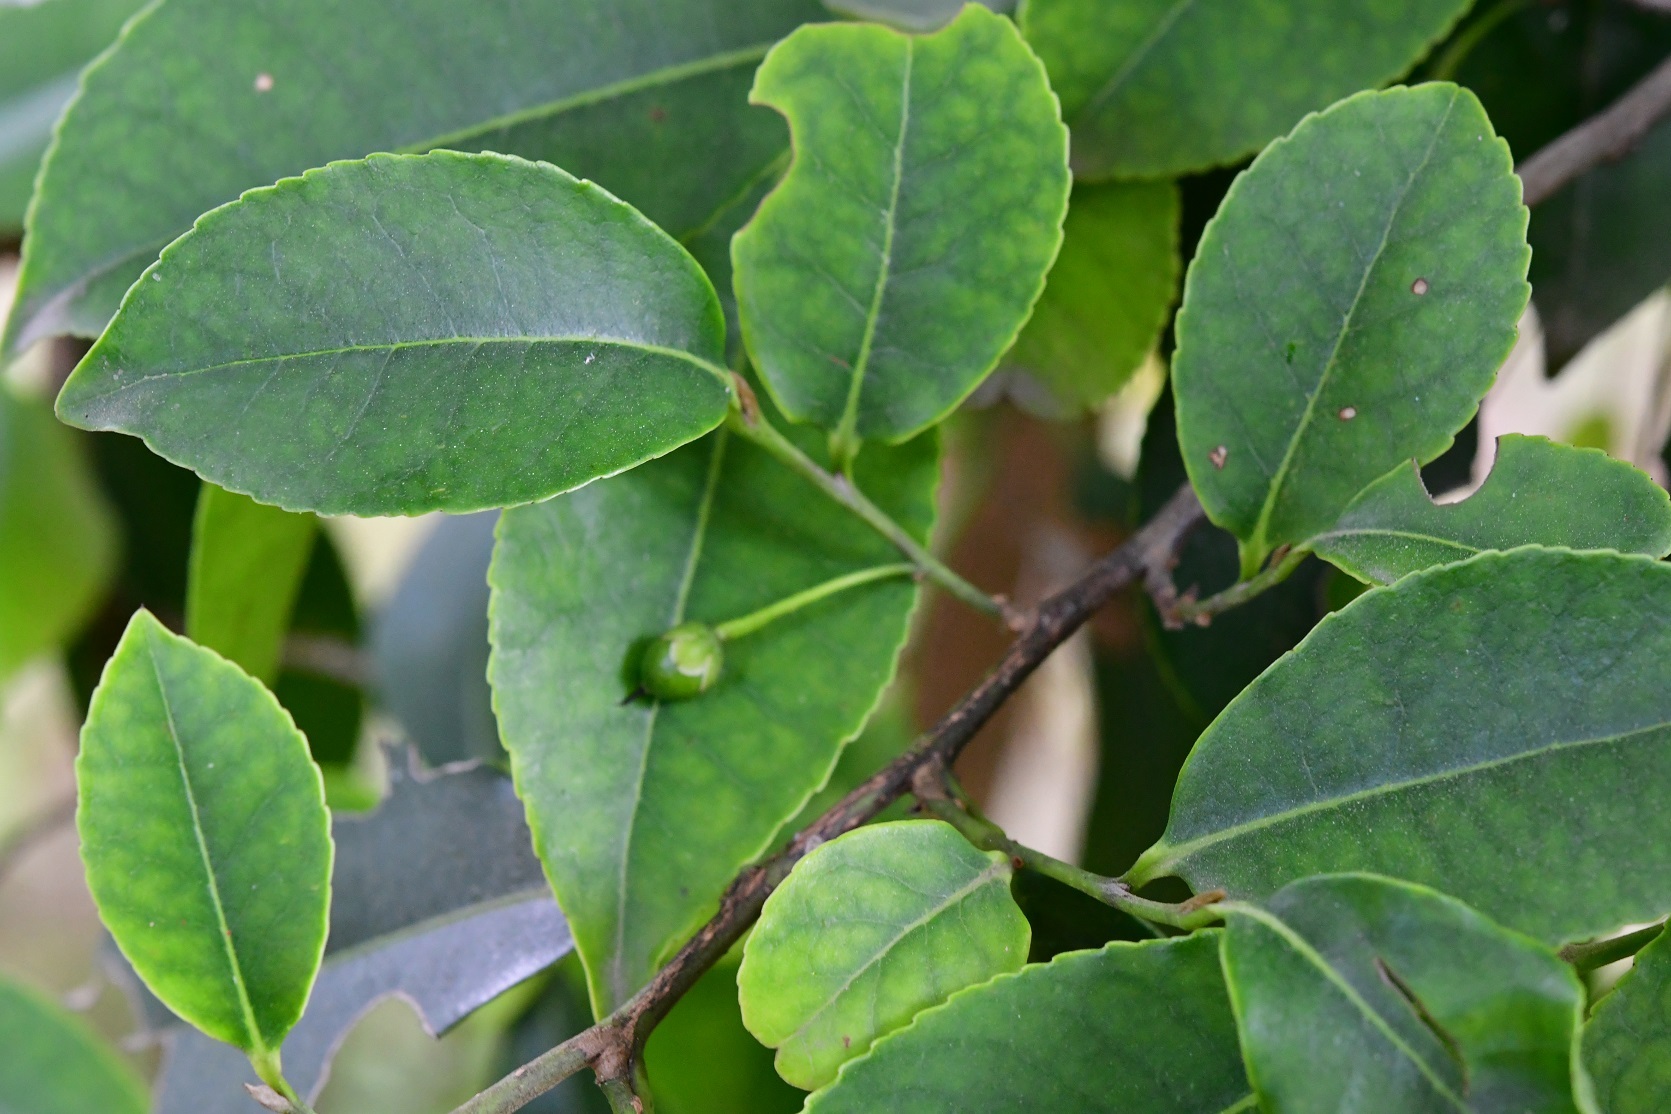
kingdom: Plantae
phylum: Tracheophyta
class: Magnoliopsida
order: Ericales
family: Pentaphylacaceae
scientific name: Pentaphylacaceae
